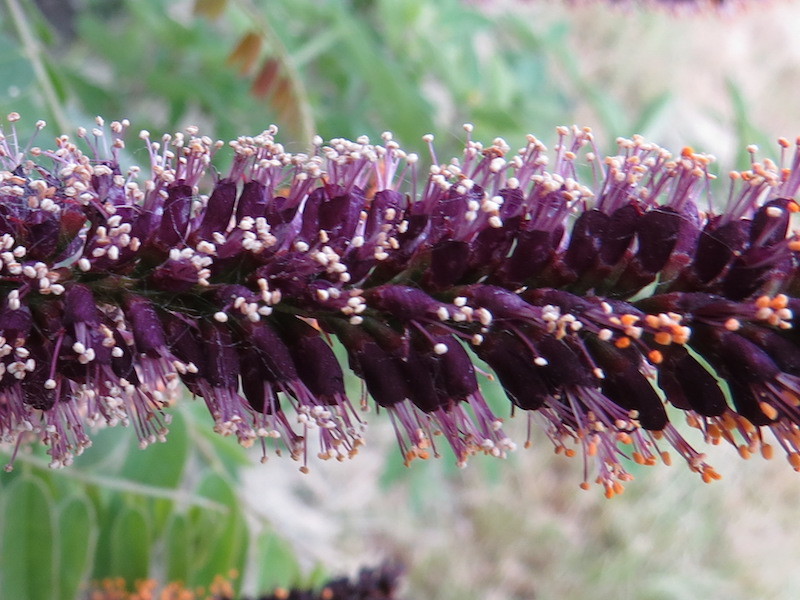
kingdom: Plantae
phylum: Tracheophyta
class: Magnoliopsida
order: Fabales
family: Fabaceae
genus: Amorpha
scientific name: Amorpha fruticosa
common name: False indigo
